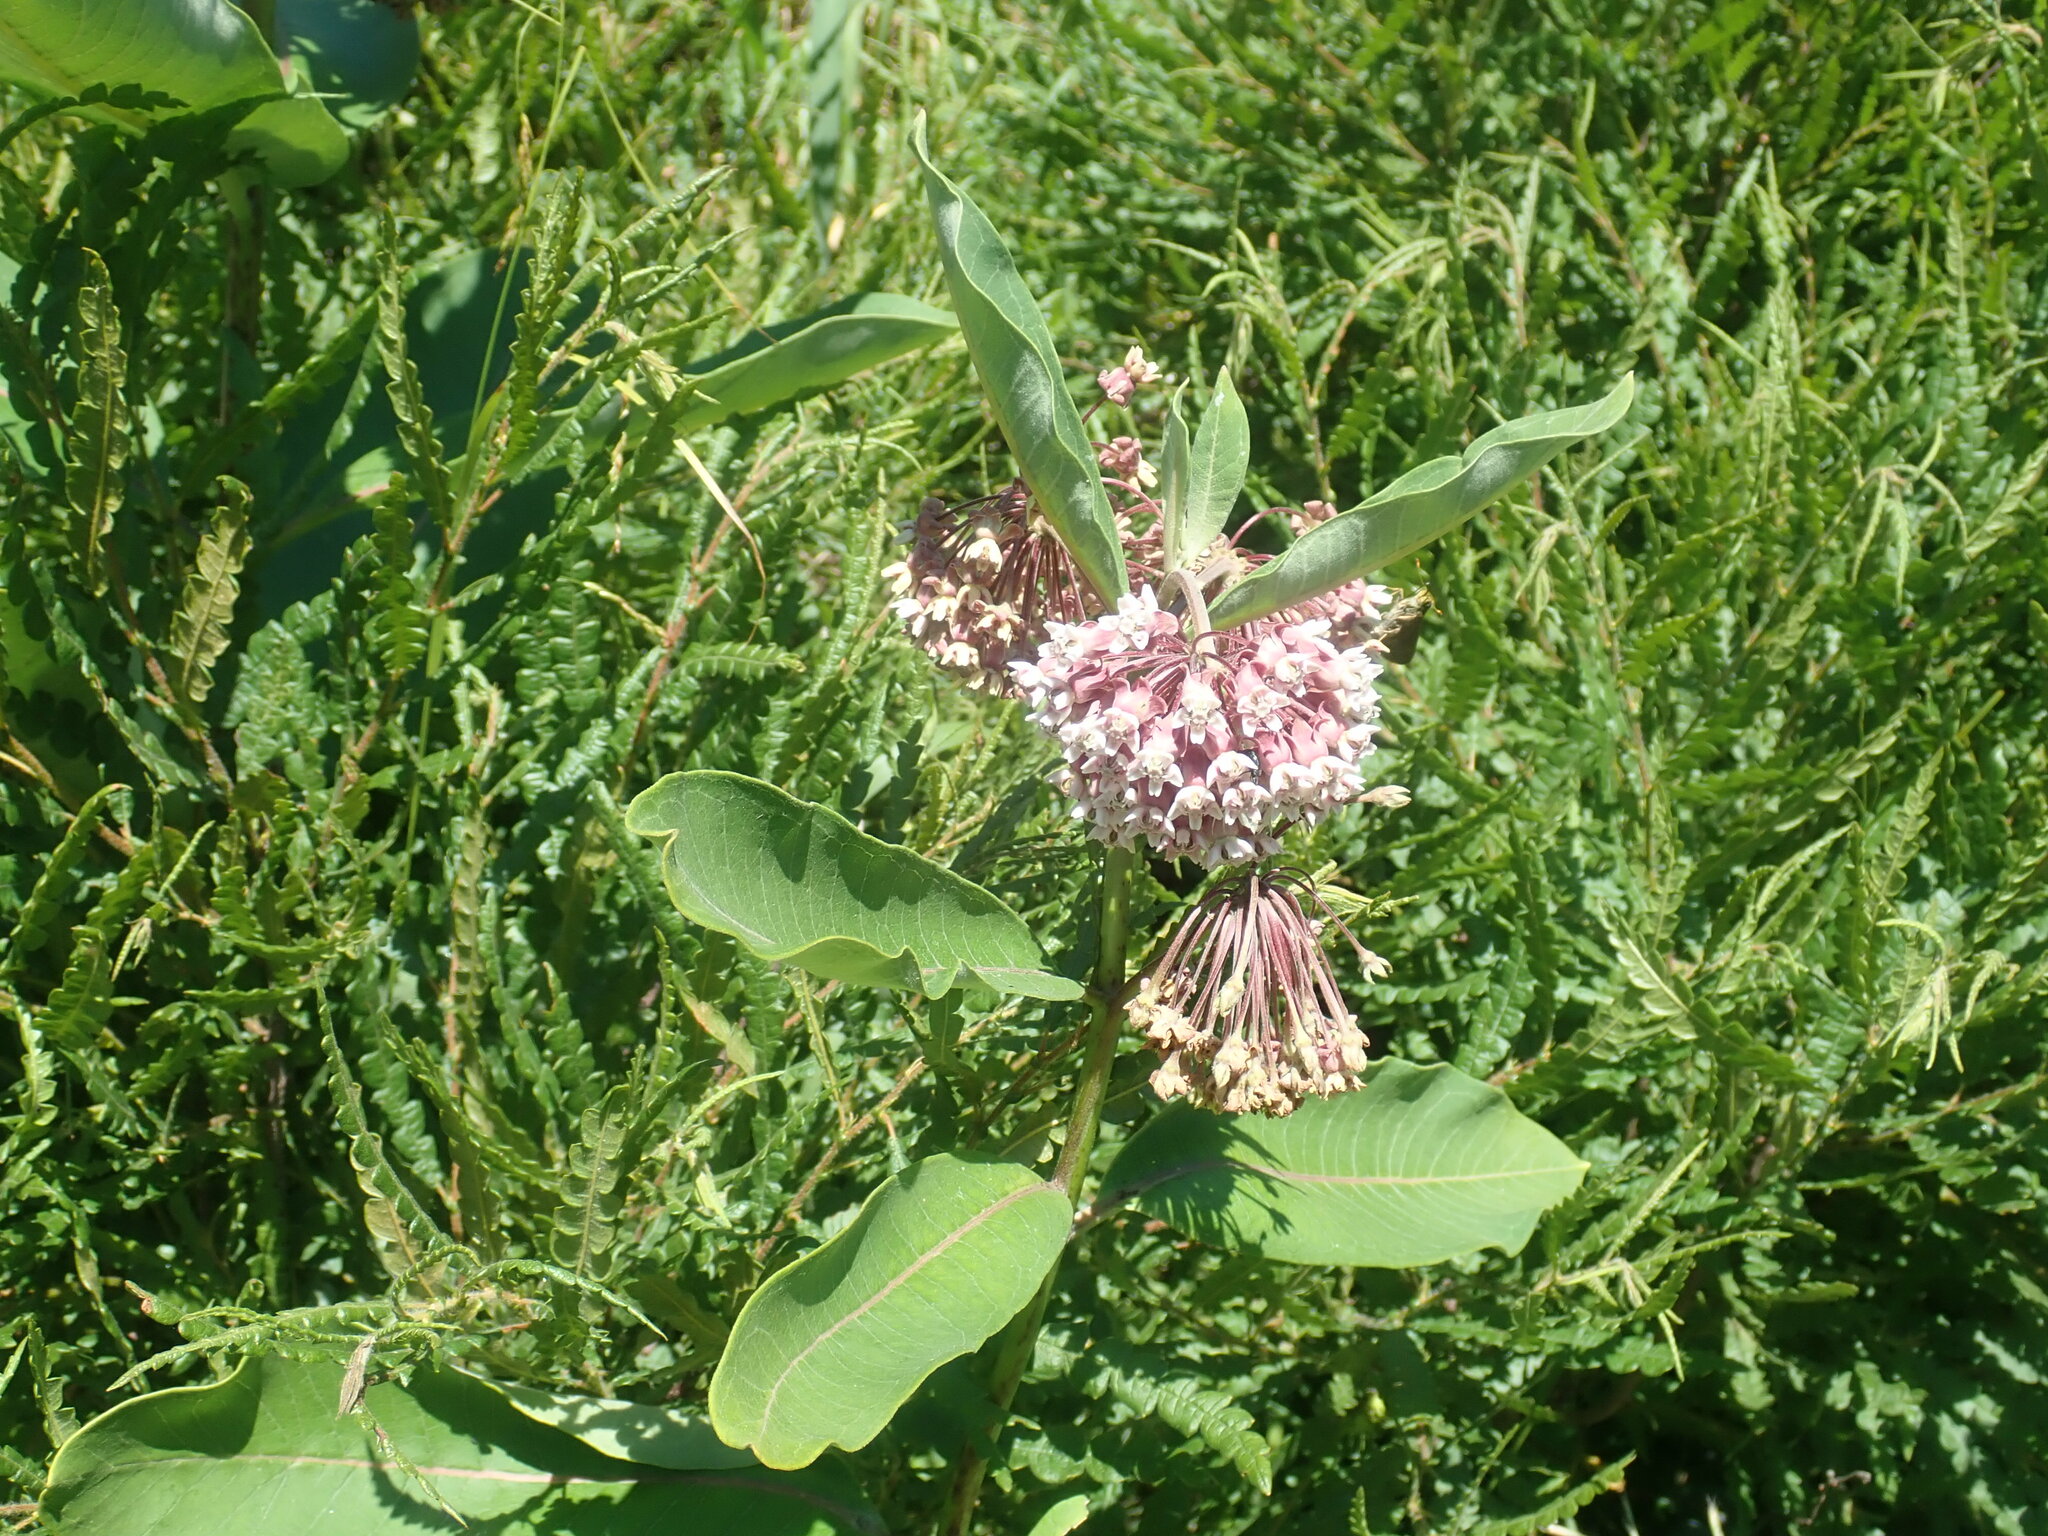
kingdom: Plantae
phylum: Tracheophyta
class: Magnoliopsida
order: Gentianales
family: Apocynaceae
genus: Asclepias
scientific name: Asclepias syriaca
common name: Common milkweed
